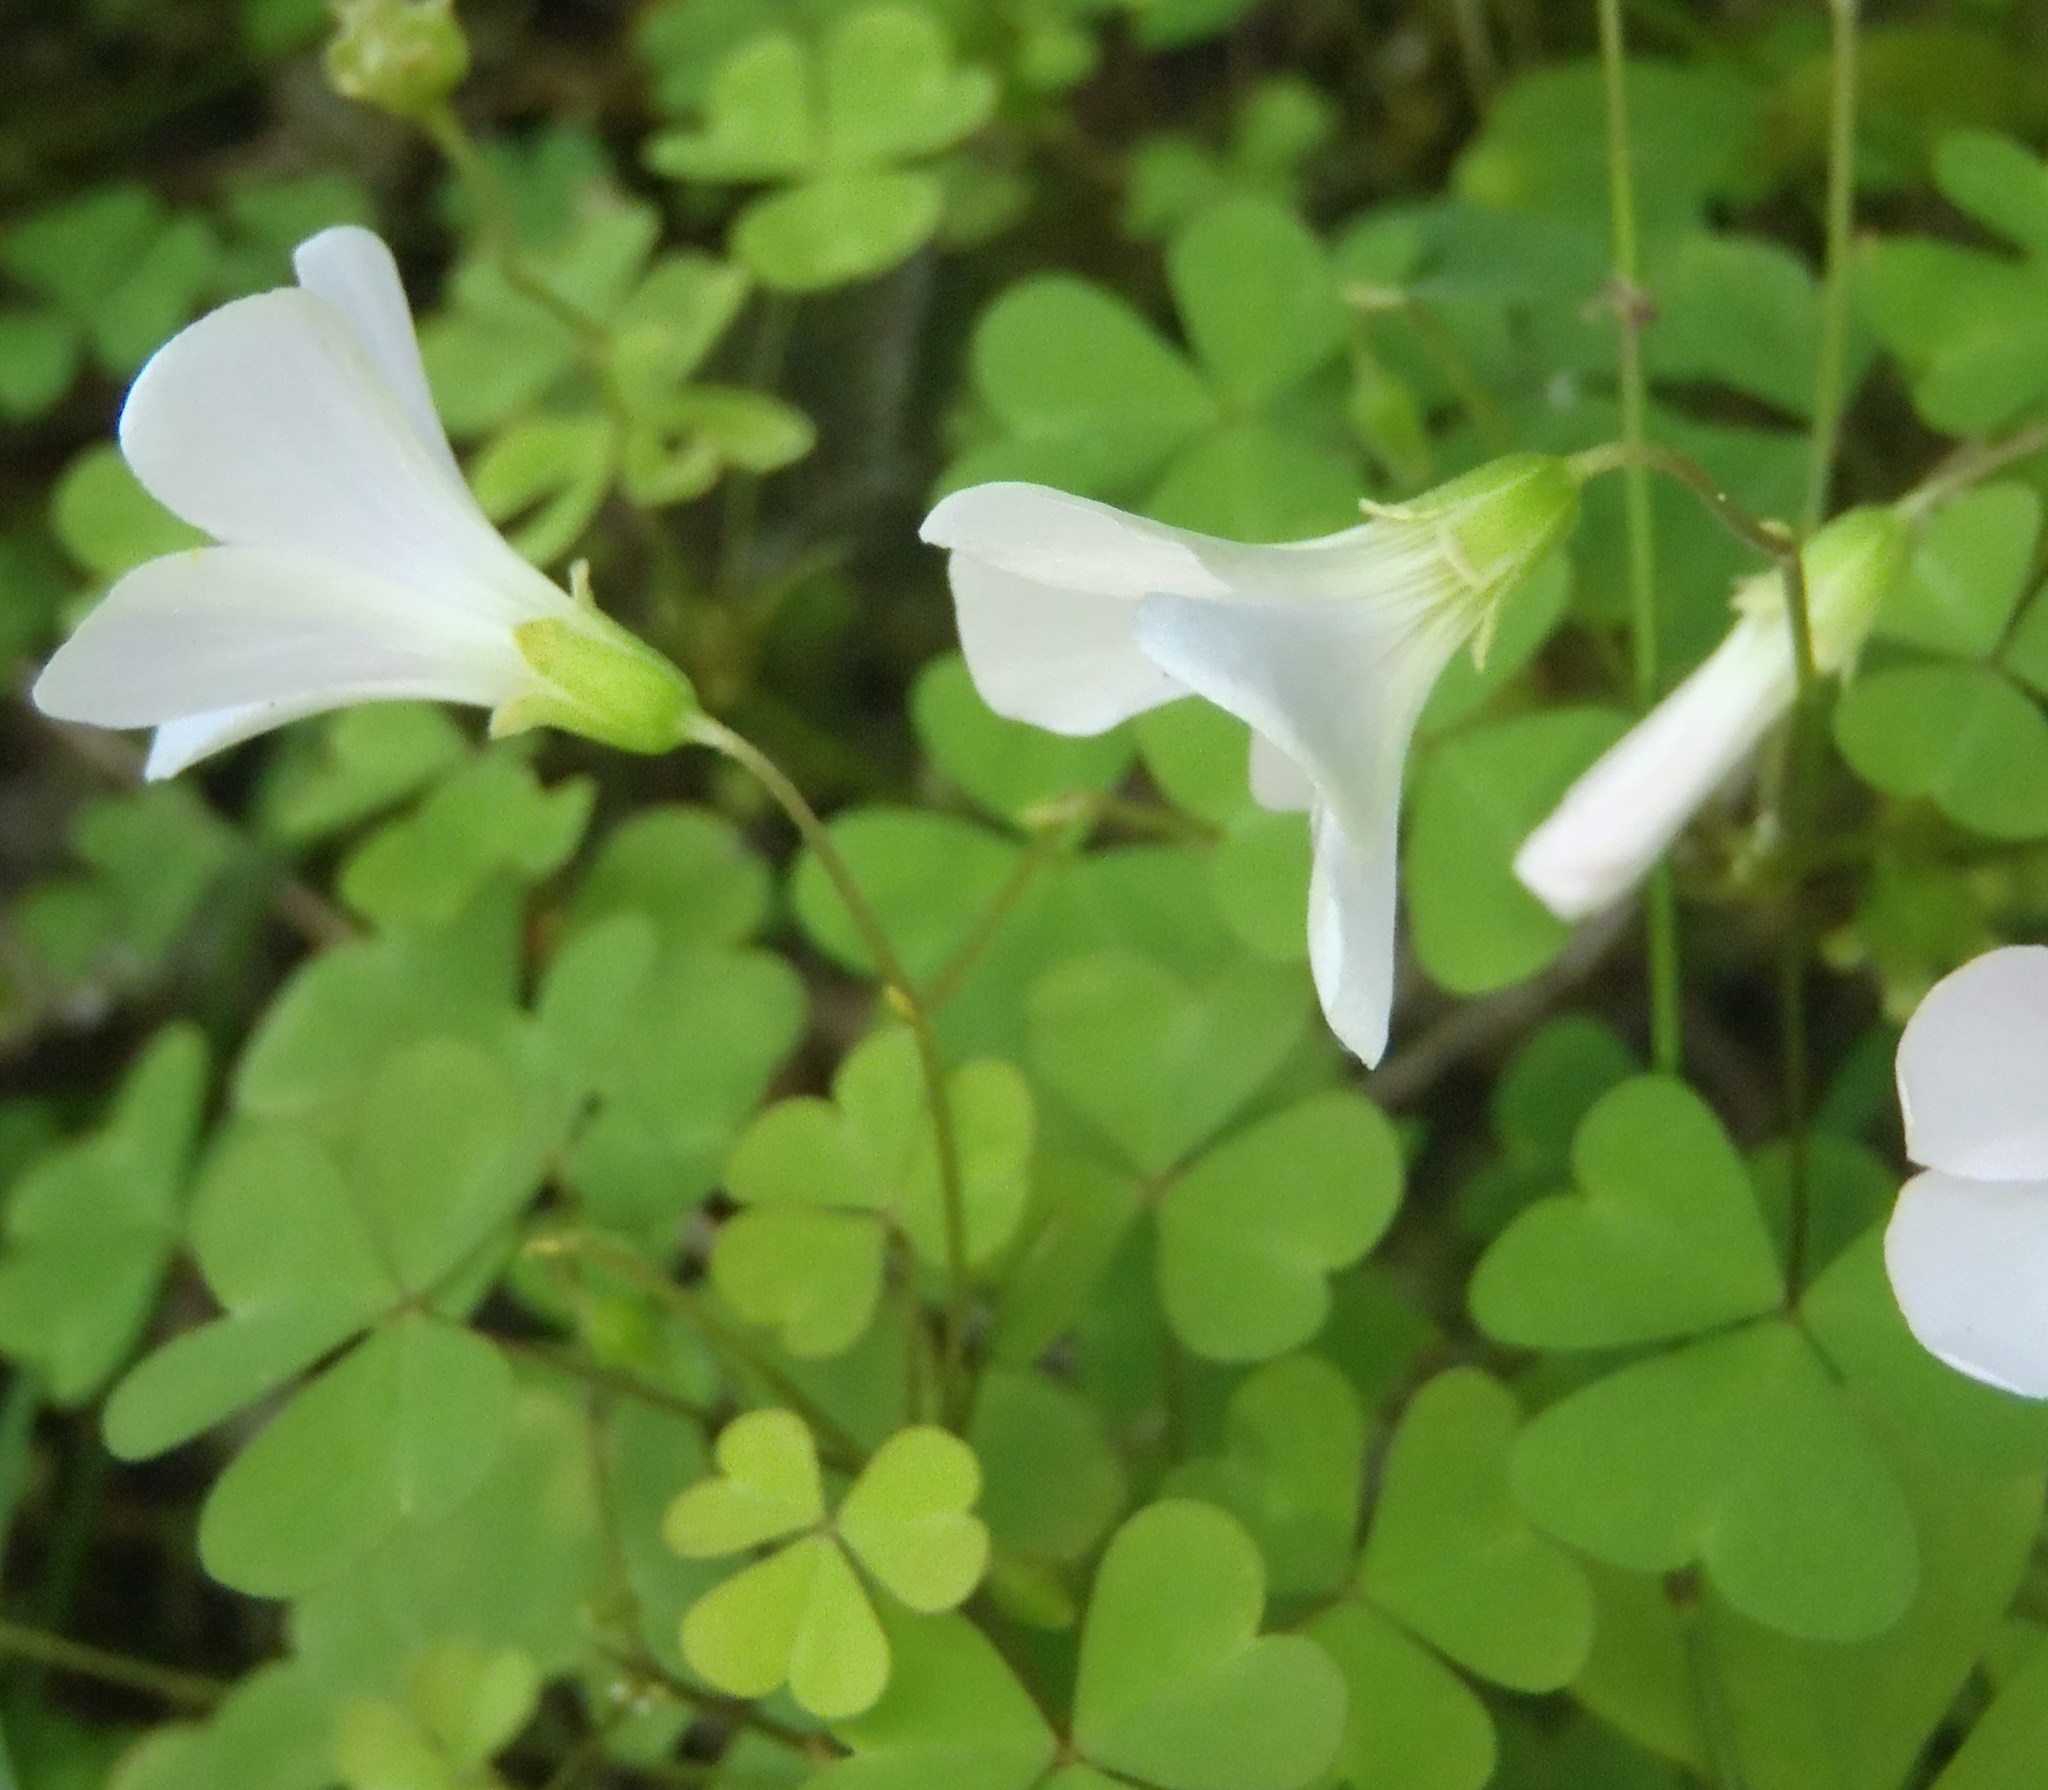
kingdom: Plantae
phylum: Tracheophyta
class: Magnoliopsida
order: Oxalidales
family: Oxalidaceae
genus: Oxalis
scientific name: Oxalis incarnata
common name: Pale pink-sorrel
